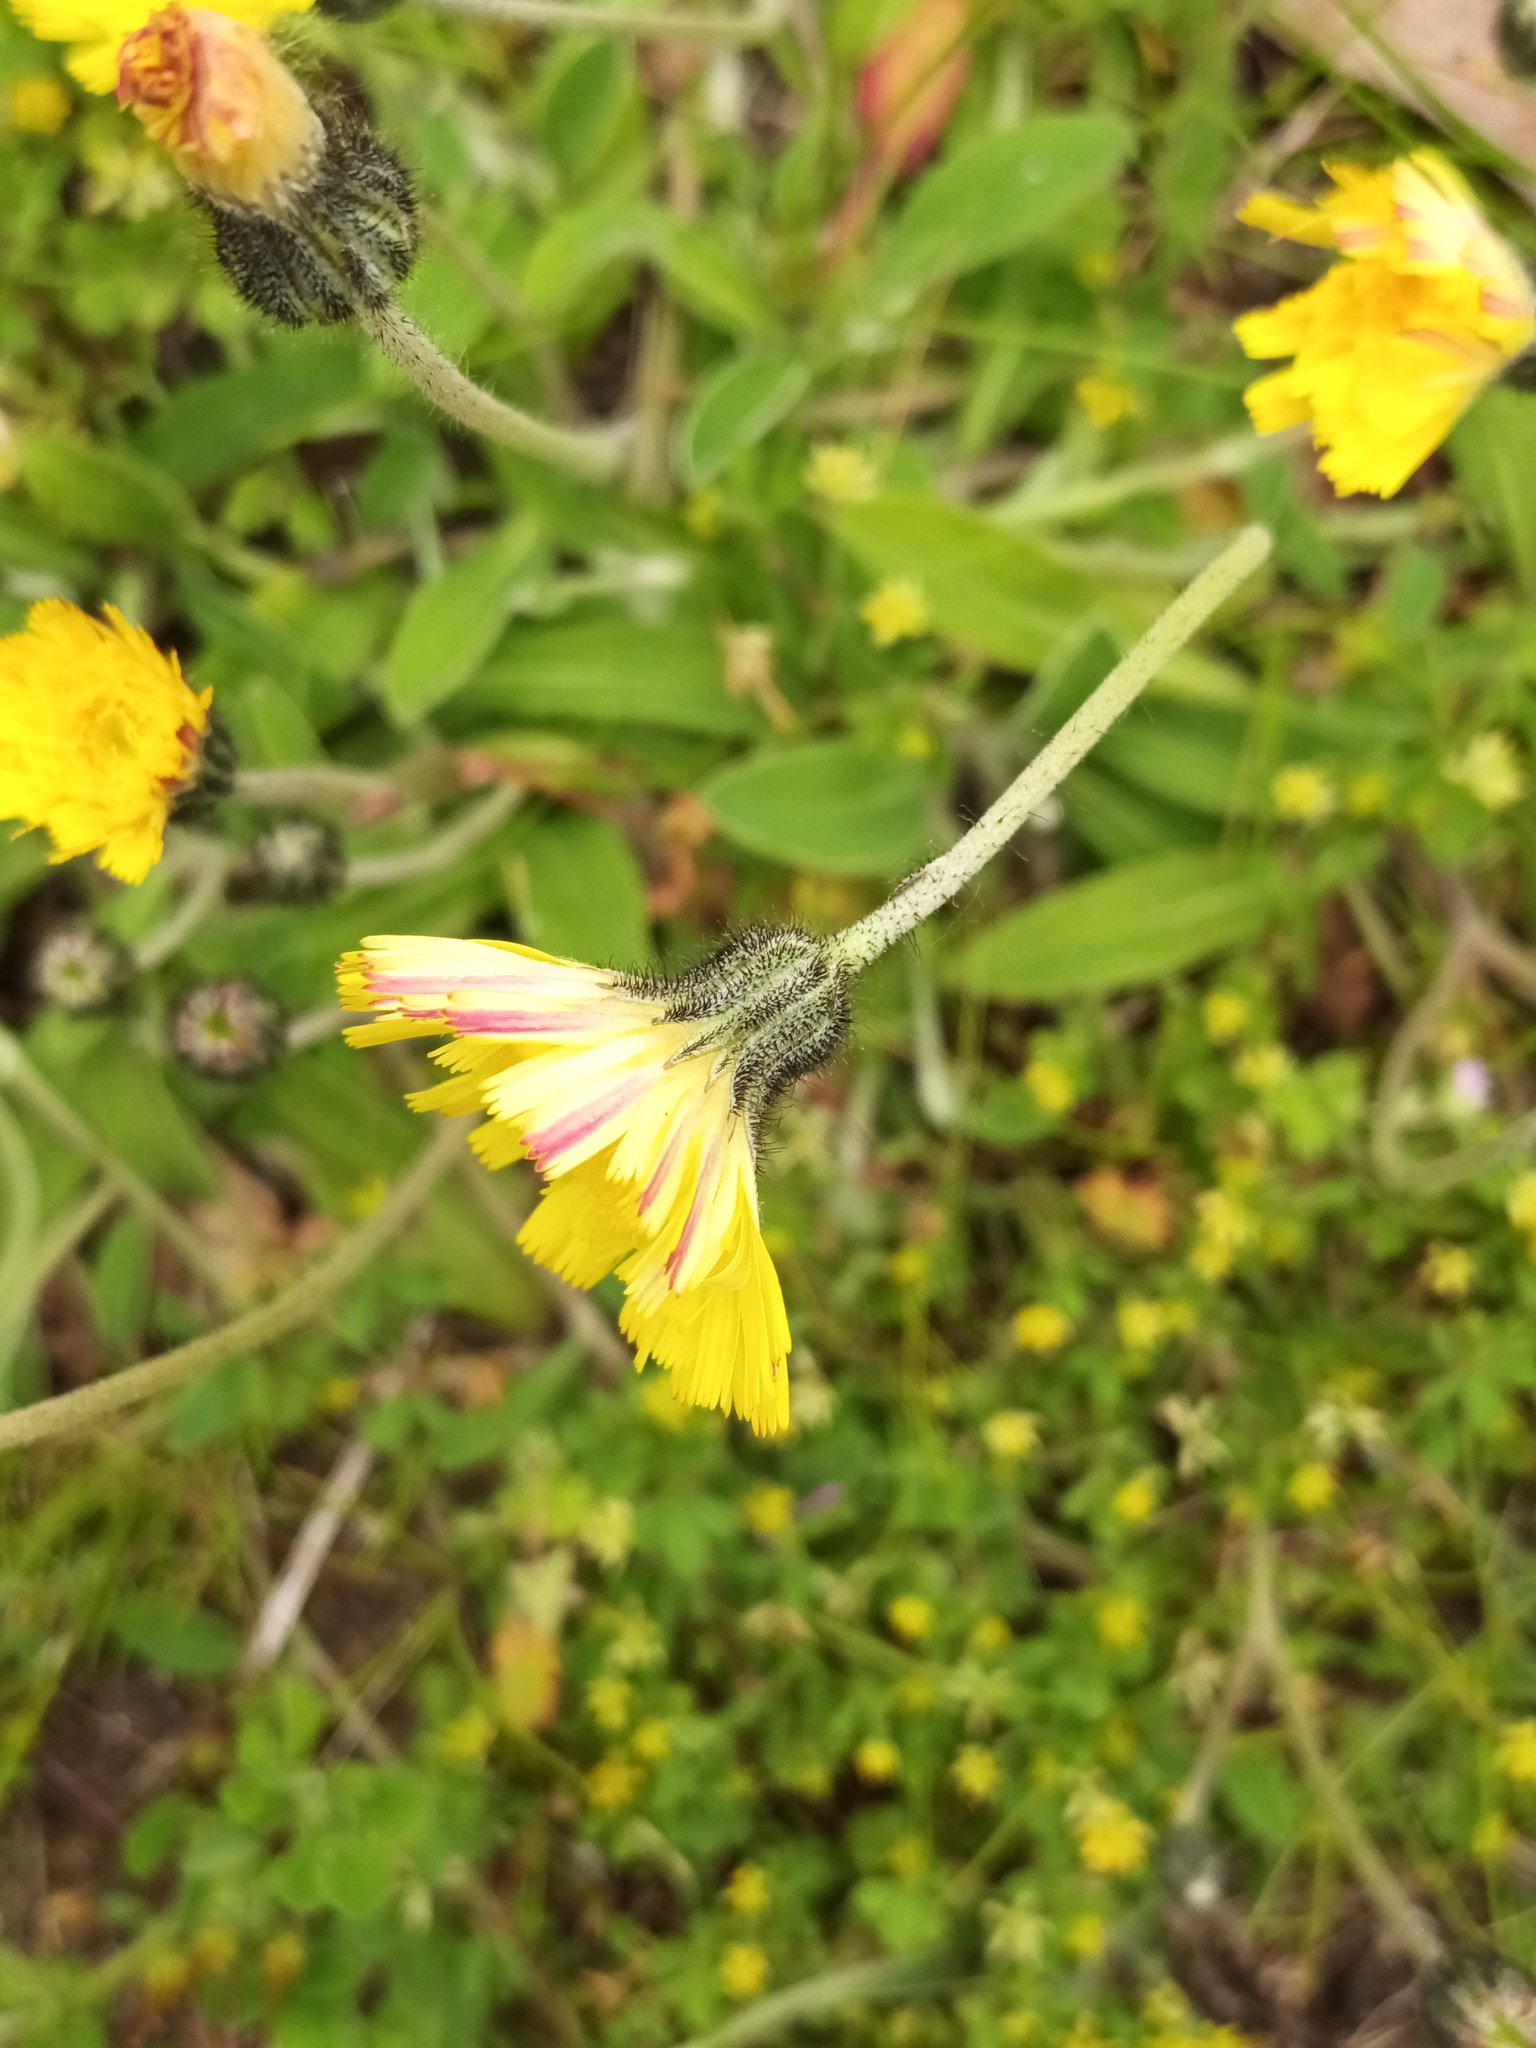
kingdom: Plantae
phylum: Tracheophyta
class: Magnoliopsida
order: Asterales
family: Asteraceae
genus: Pilosella
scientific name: Pilosella officinarum
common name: Mouse-ear hawkweed
